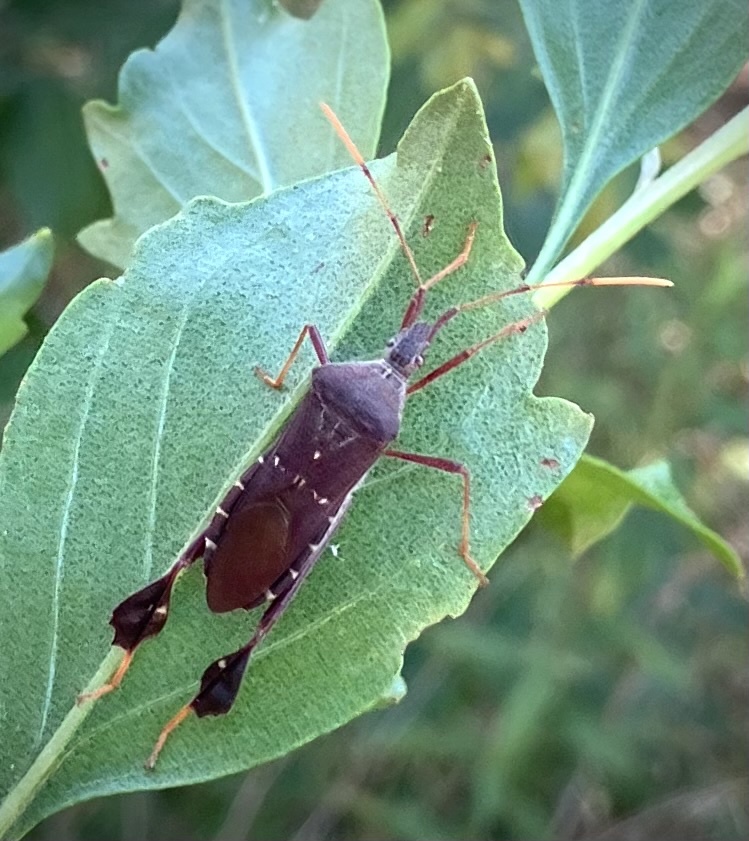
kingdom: Animalia
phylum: Arthropoda
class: Insecta
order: Hemiptera
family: Coreidae
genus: Leptoglossus
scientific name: Leptoglossus oppositus
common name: Northern leaf-footed bug
